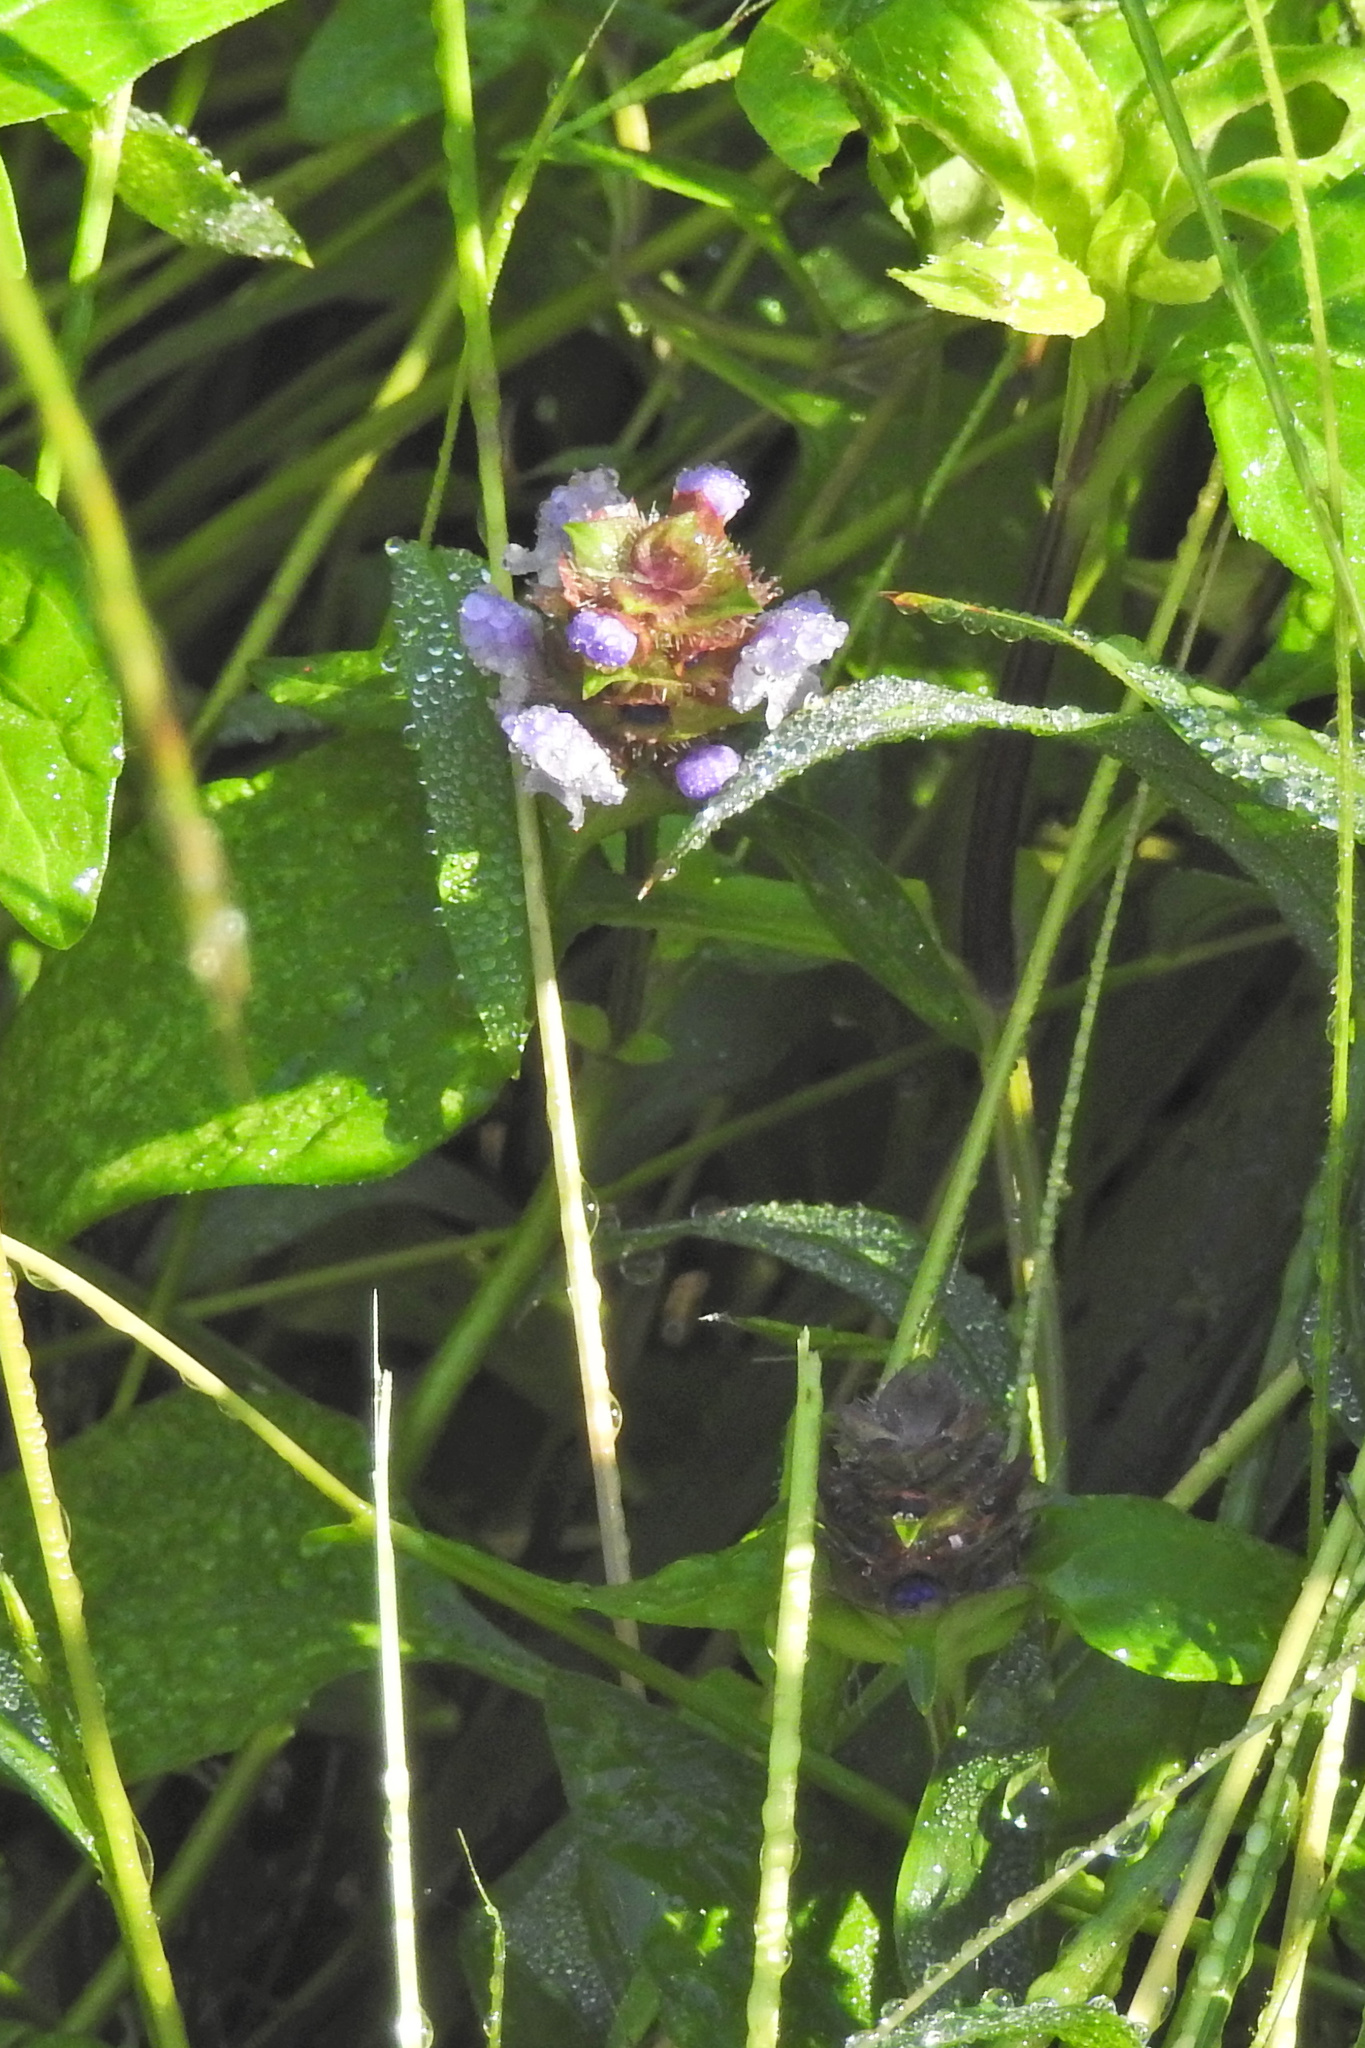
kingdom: Plantae
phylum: Tracheophyta
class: Magnoliopsida
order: Lamiales
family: Lamiaceae
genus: Prunella
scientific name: Prunella vulgaris
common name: Heal-all
